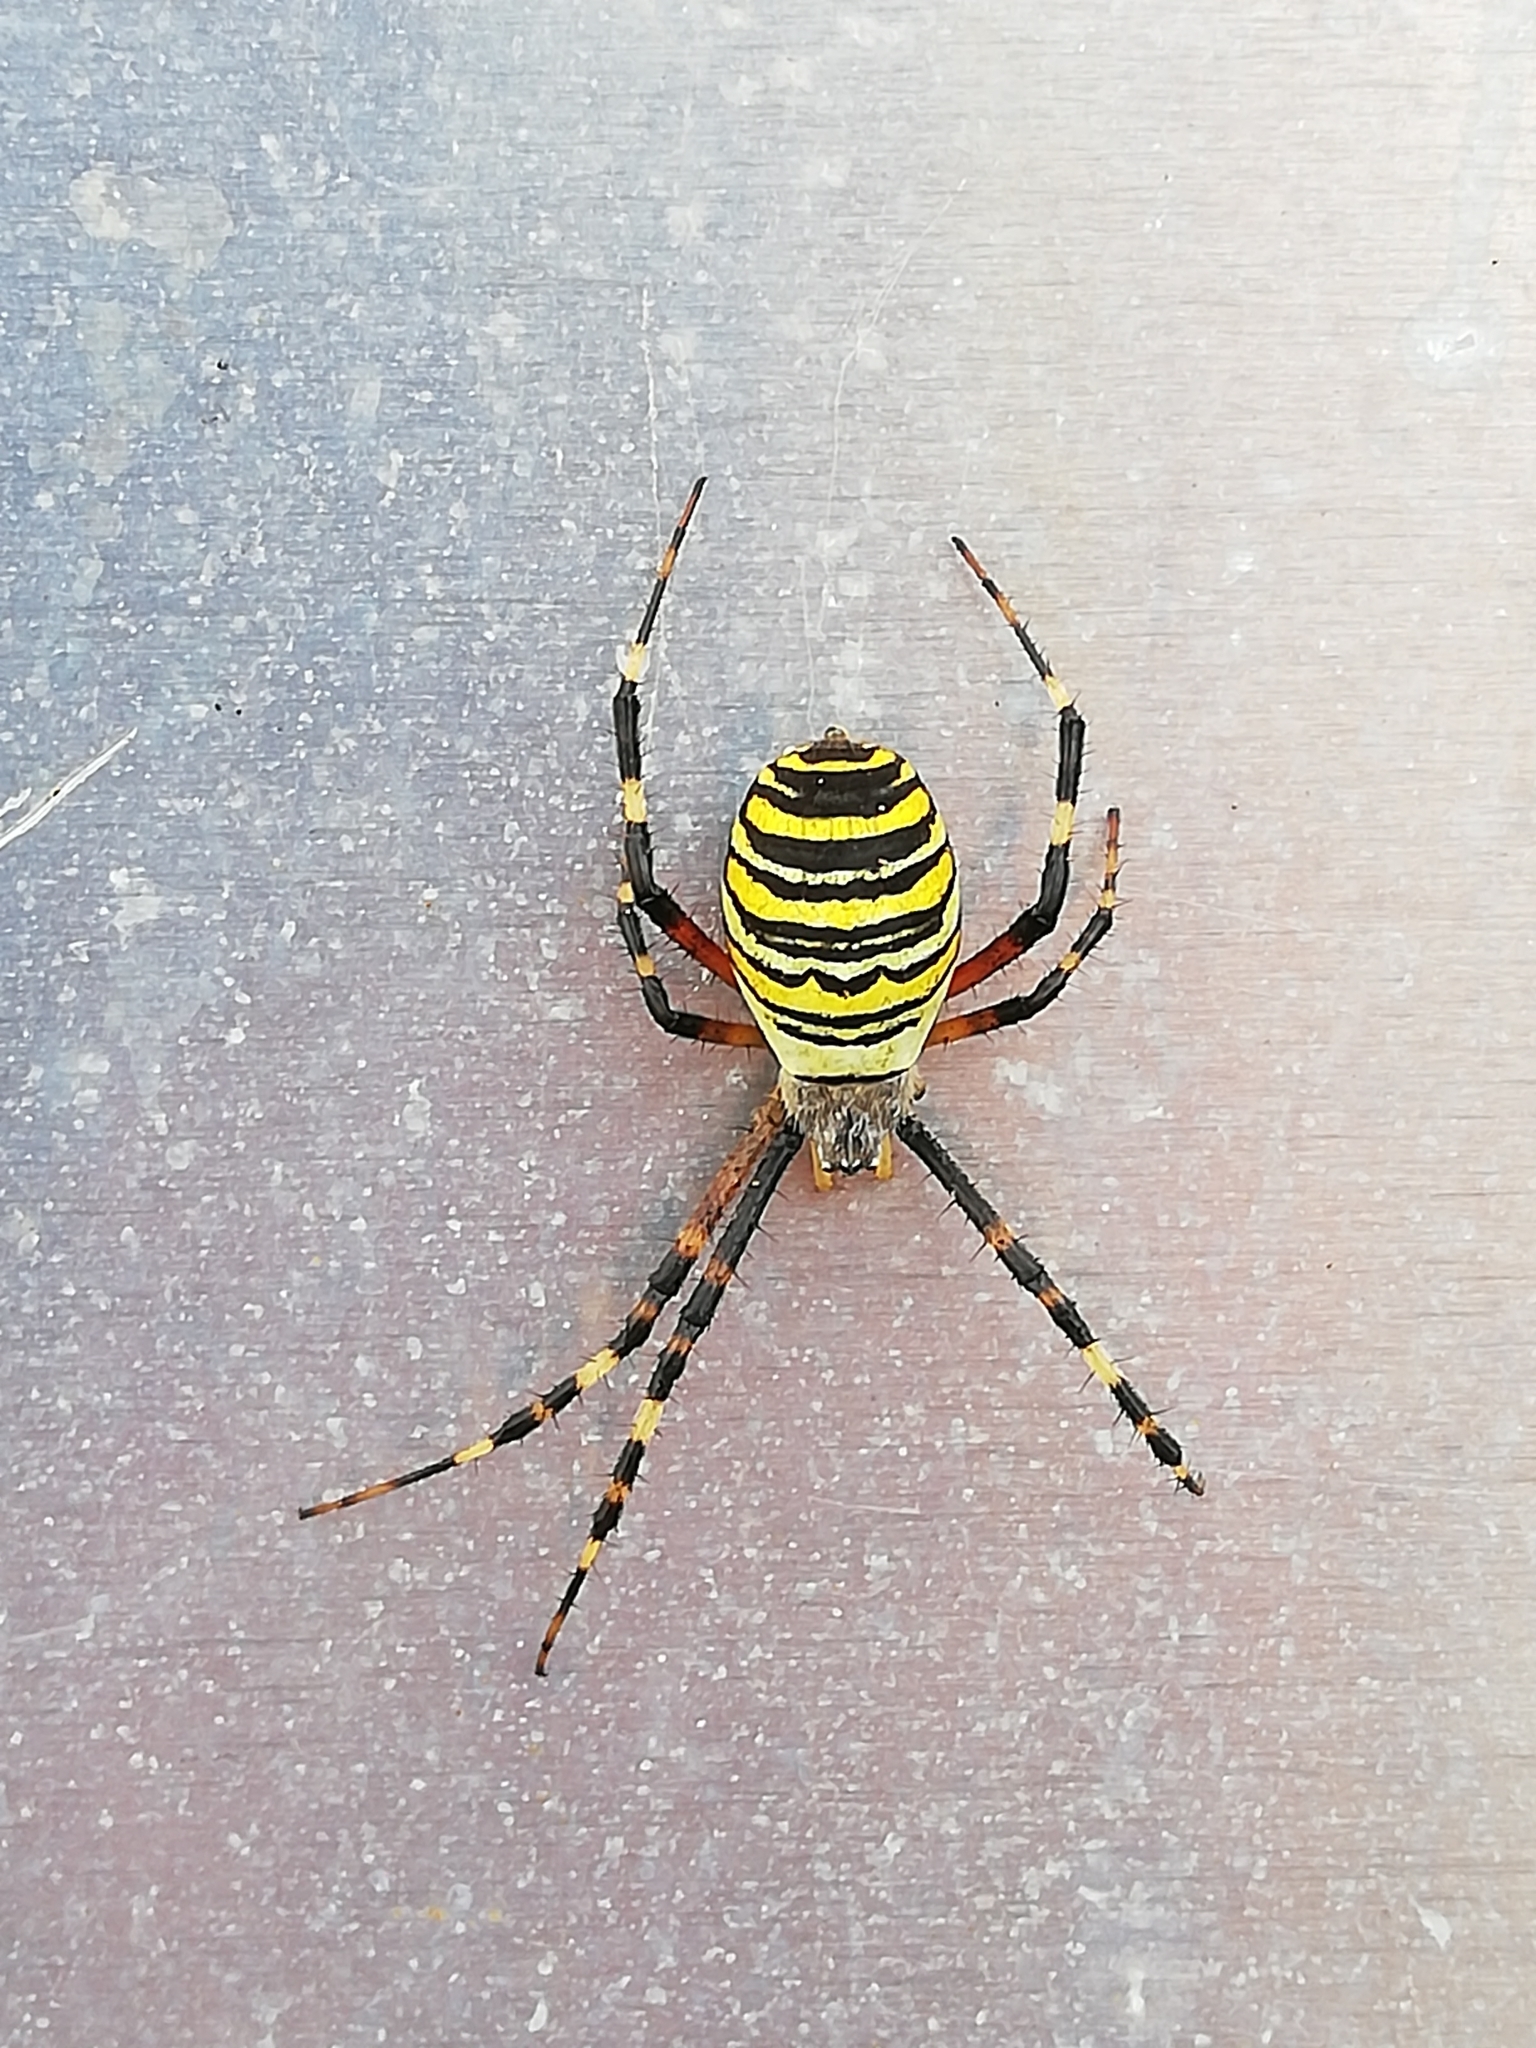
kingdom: Animalia
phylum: Arthropoda
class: Arachnida
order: Araneae
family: Araneidae
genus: Argiope
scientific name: Argiope bruennichi
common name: Wasp spider
